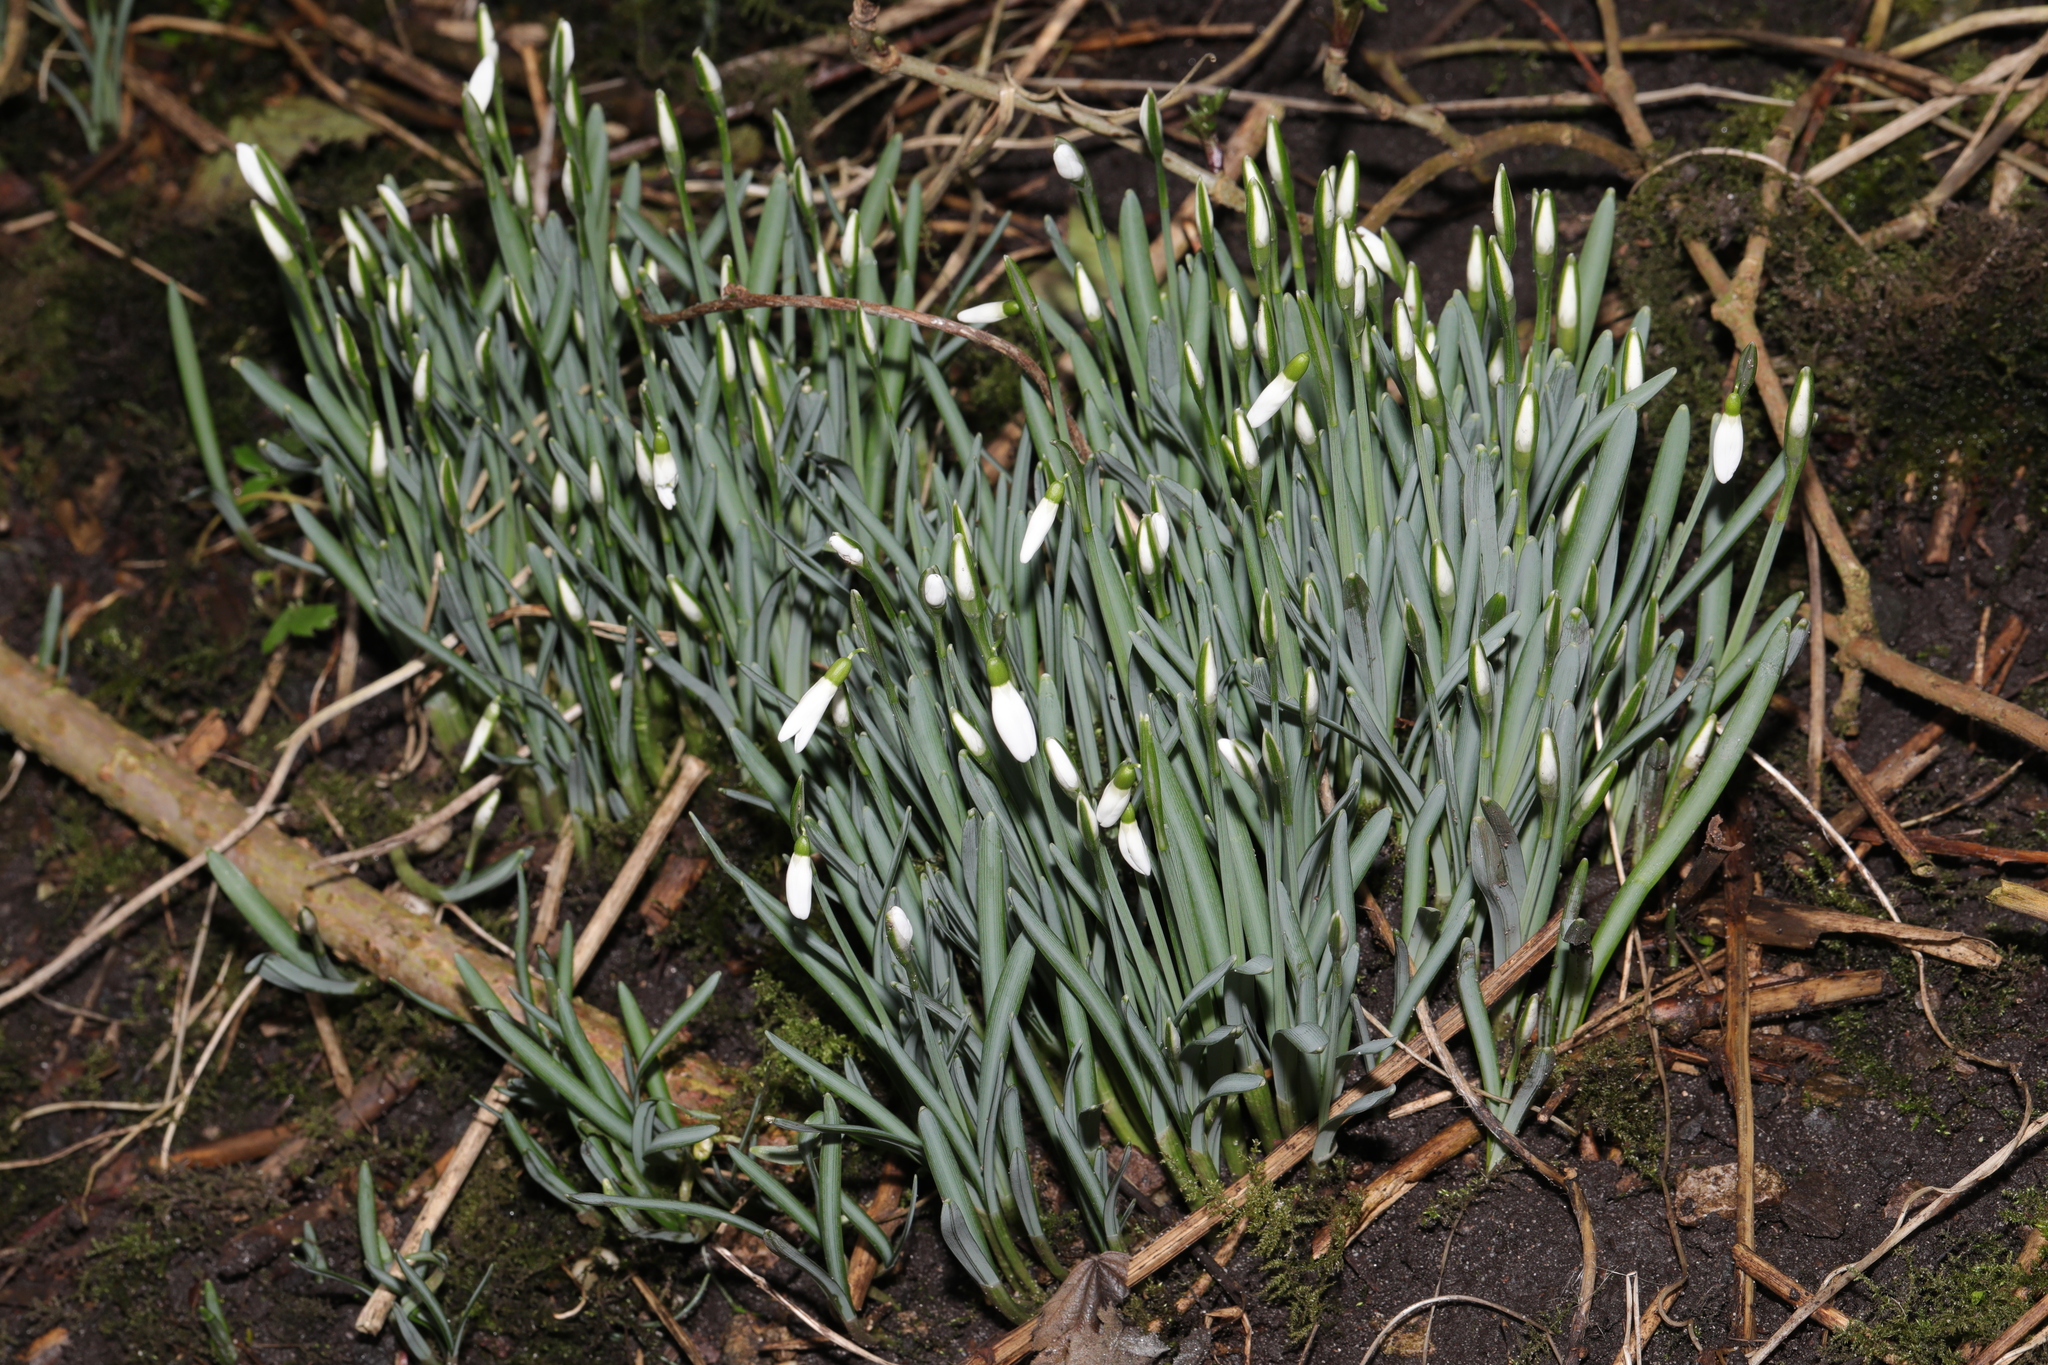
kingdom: Plantae
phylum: Tracheophyta
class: Liliopsida
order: Asparagales
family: Amaryllidaceae
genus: Galanthus
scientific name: Galanthus nivalis
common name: Snowdrop
